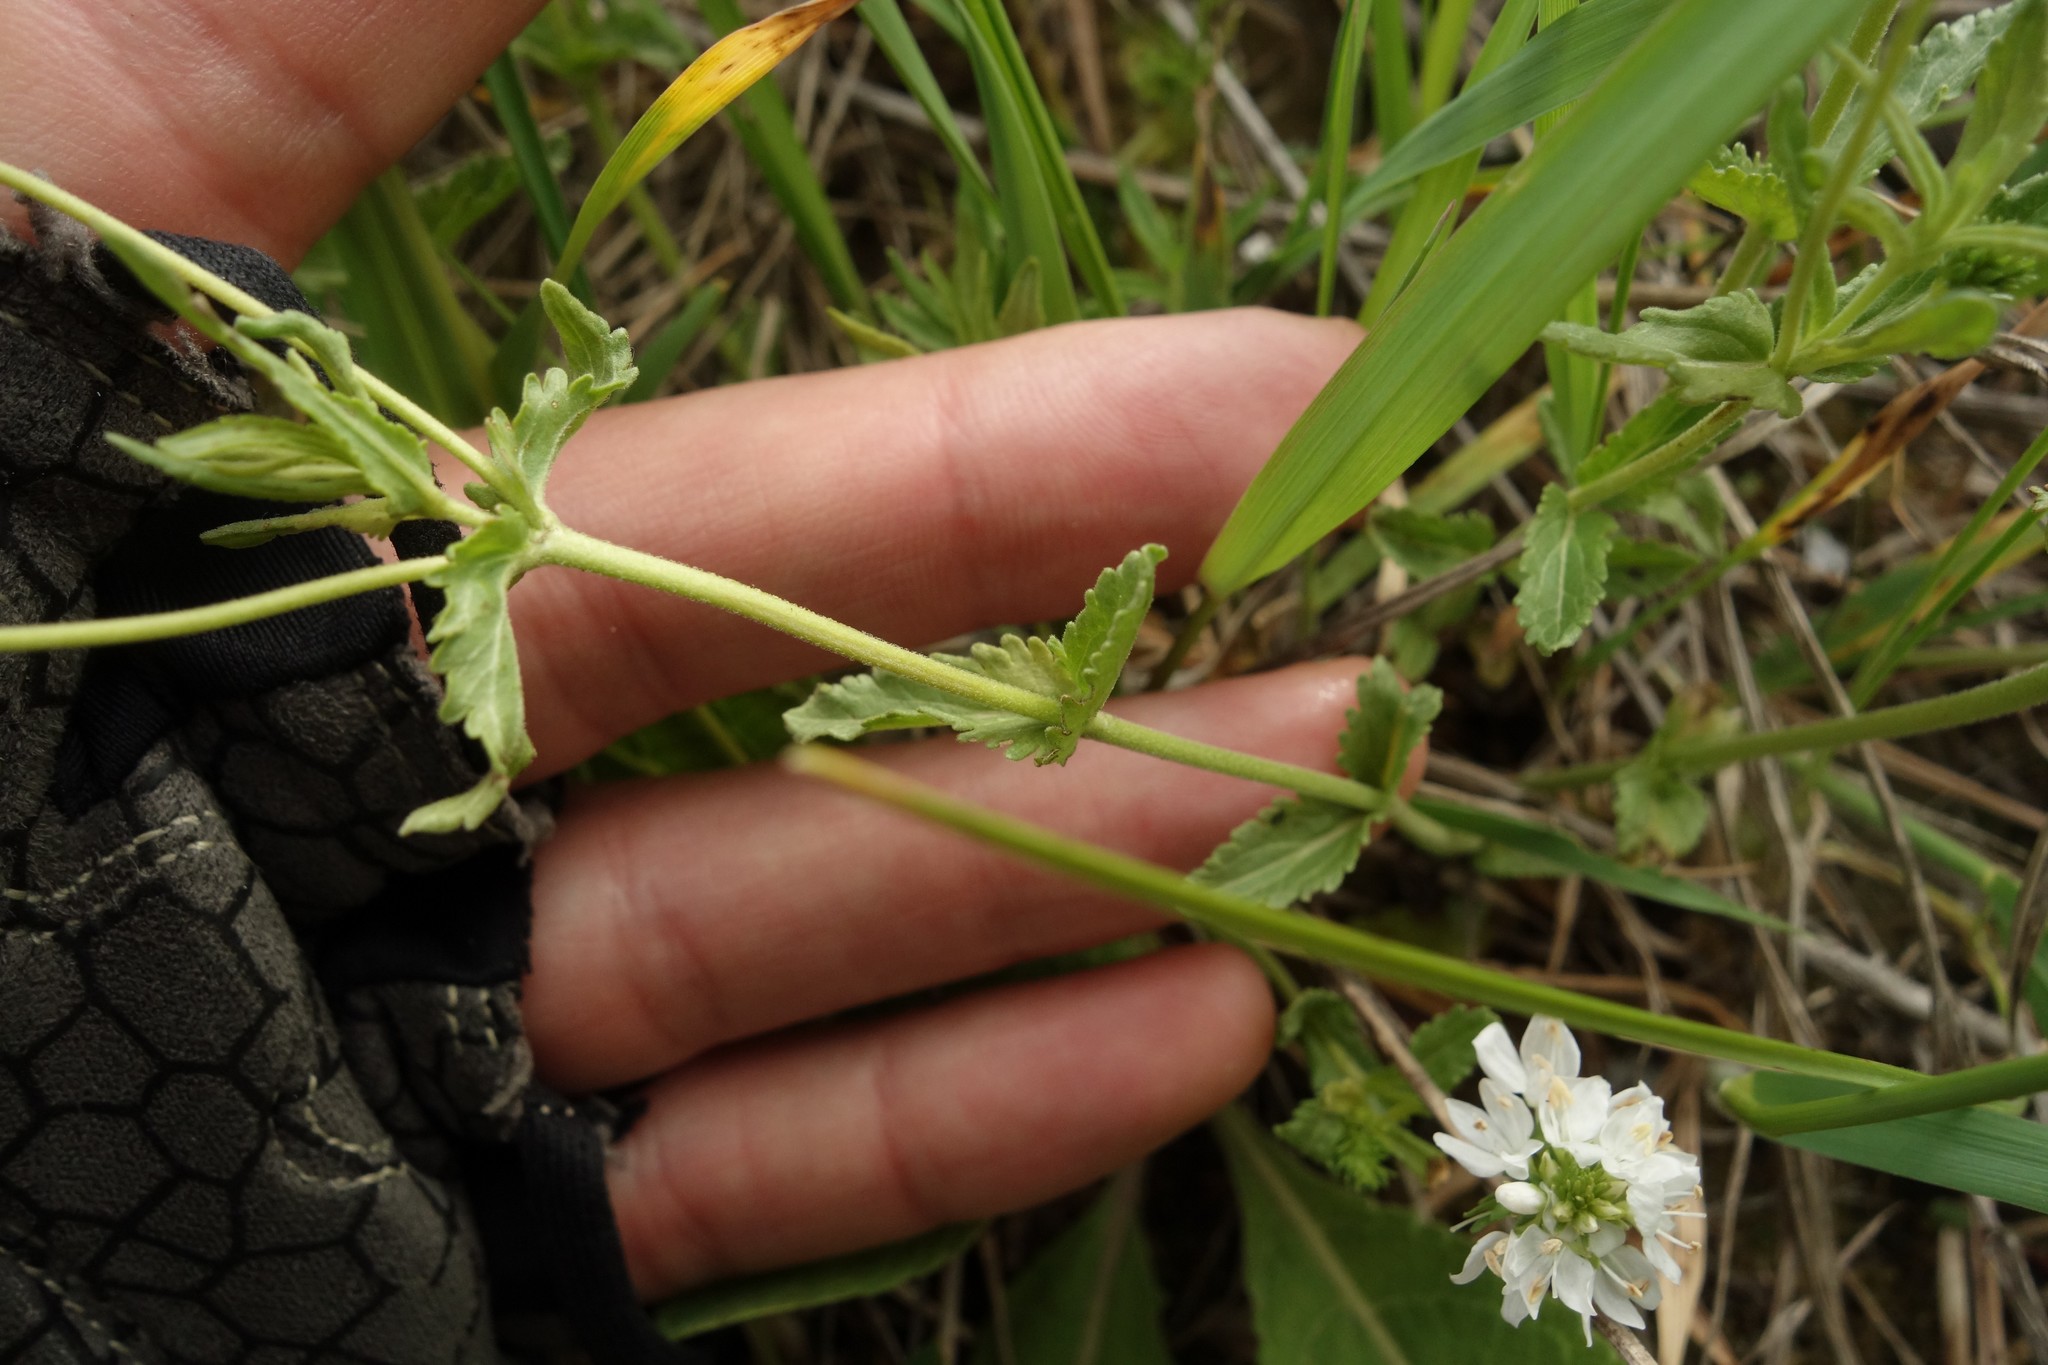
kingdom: Plantae
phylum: Tracheophyta
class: Magnoliopsida
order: Lamiales
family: Plantaginaceae
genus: Veronica
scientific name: Veronica prostrata
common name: Prostrate speedwell
